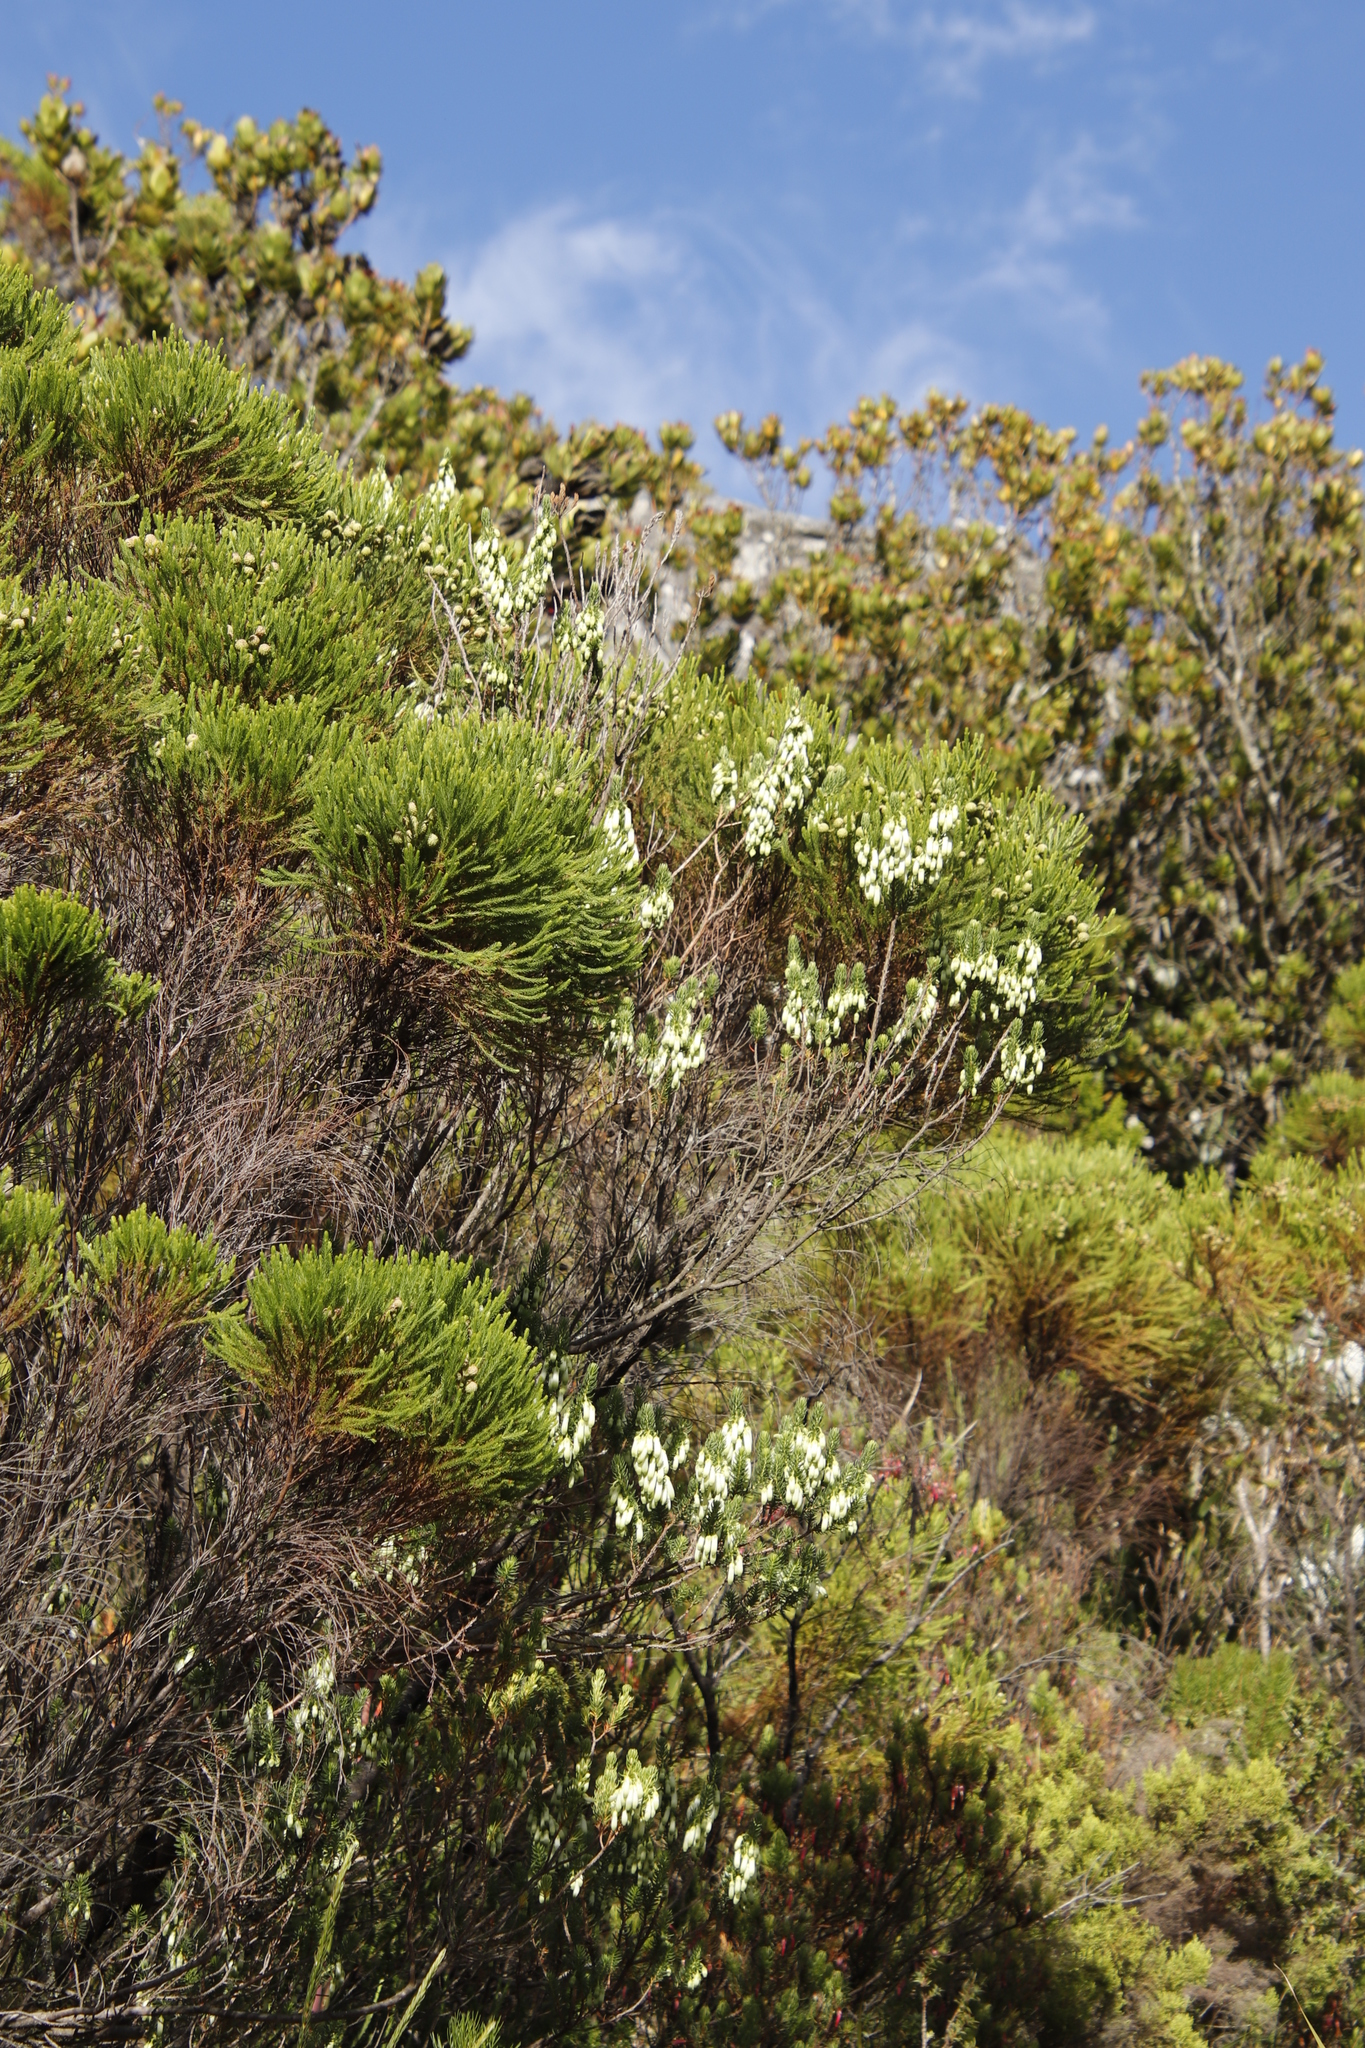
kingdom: Plantae
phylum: Tracheophyta
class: Magnoliopsida
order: Ericales
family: Ericaceae
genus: Erica
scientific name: Erica mammosa
